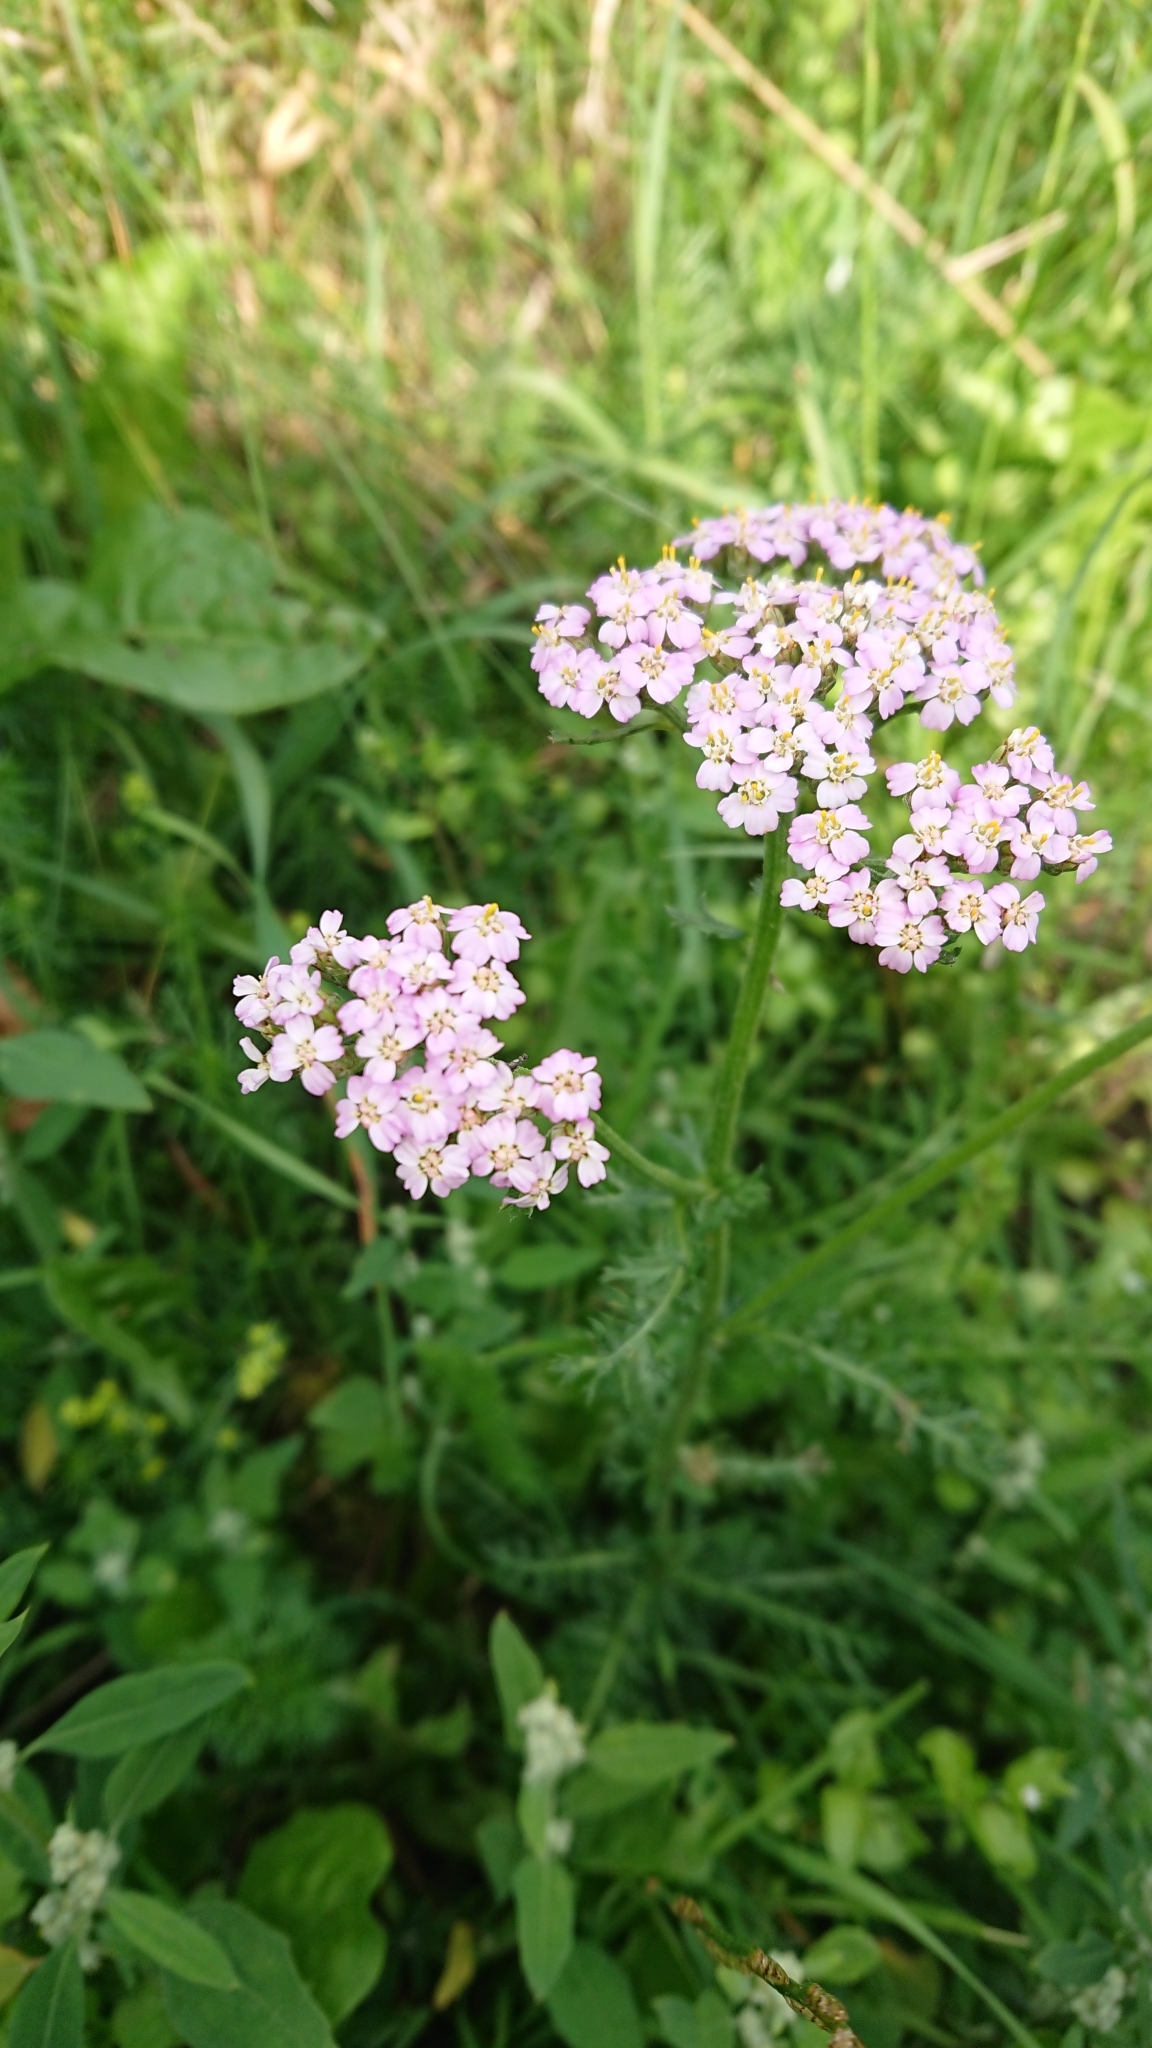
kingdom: Plantae
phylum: Tracheophyta
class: Magnoliopsida
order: Asterales
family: Asteraceae
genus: Achillea
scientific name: Achillea millefolium
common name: Yarrow
